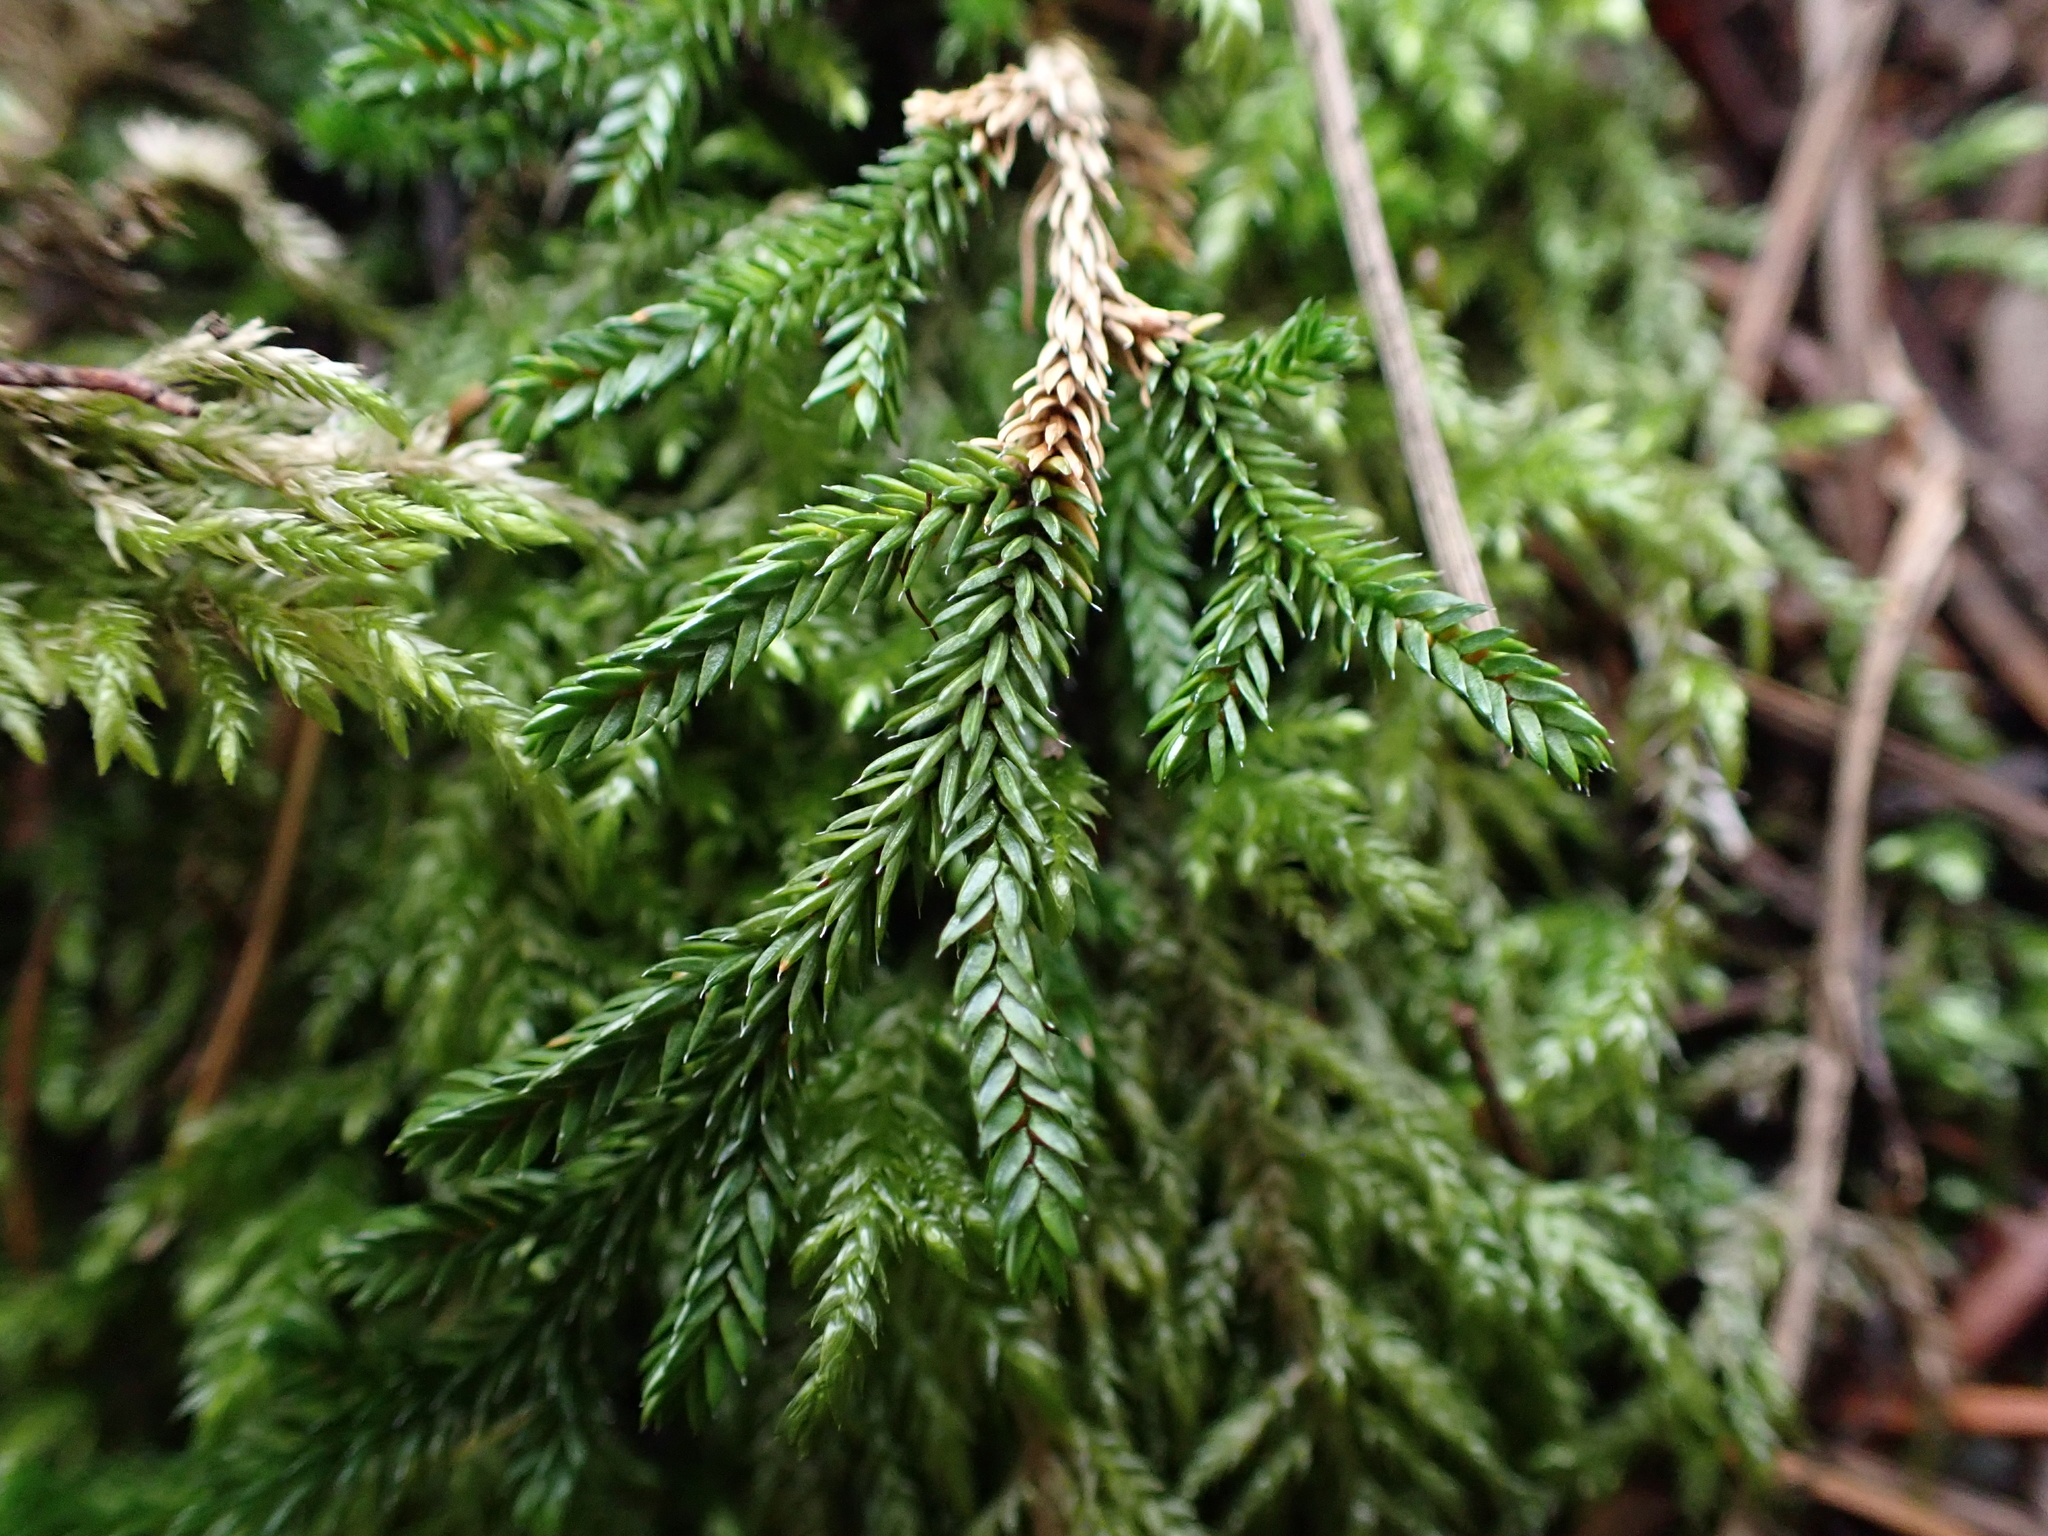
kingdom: Plantae
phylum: Tracheophyta
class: Lycopodiopsida
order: Selaginellales
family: Selaginellaceae
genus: Selaginella
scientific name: Selaginella wallacei
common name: Wallace's selaginella
